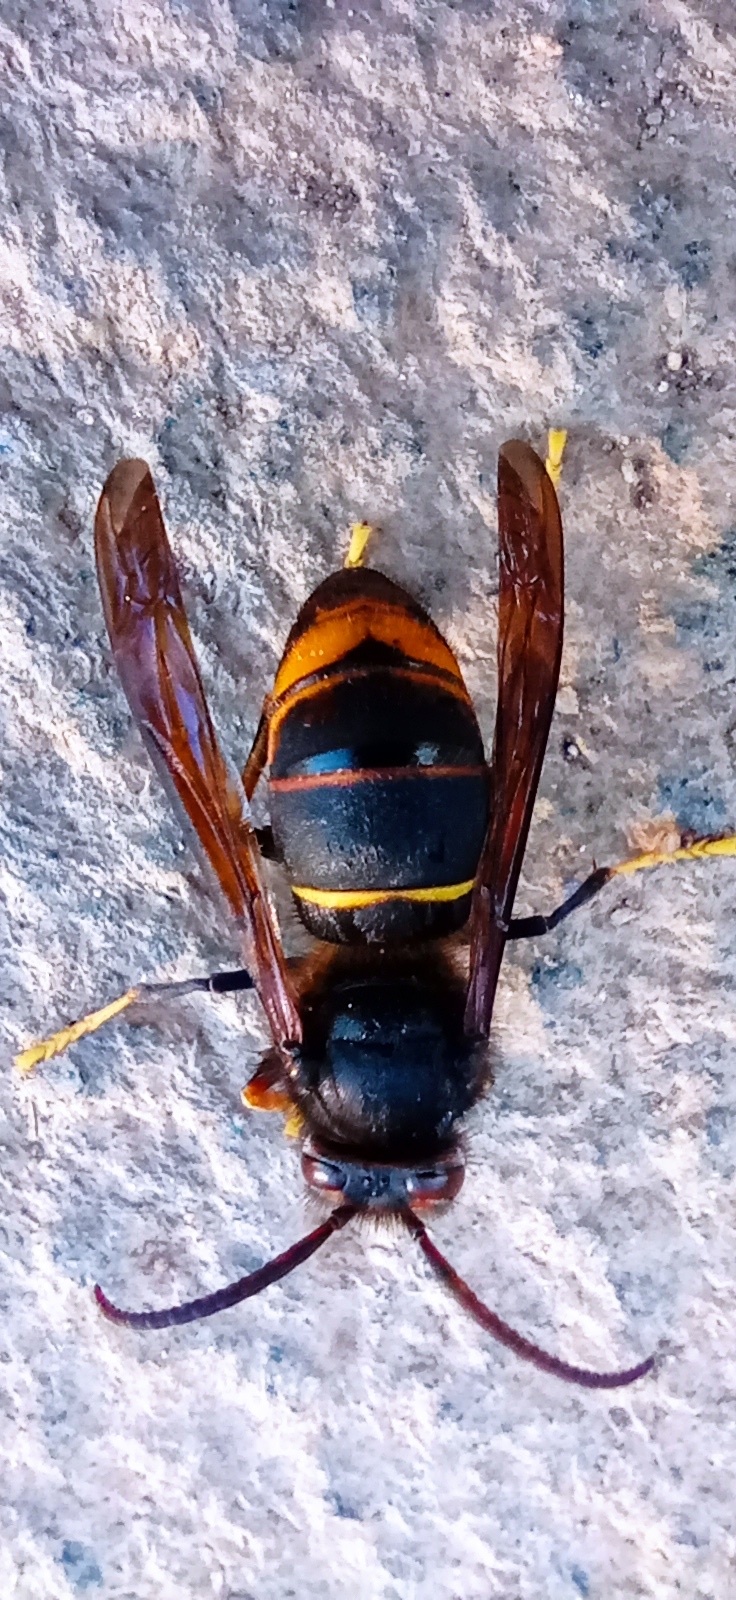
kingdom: Animalia
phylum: Arthropoda
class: Insecta
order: Hymenoptera
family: Vespidae
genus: Vespa
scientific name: Vespa velutina
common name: Asian hornet
